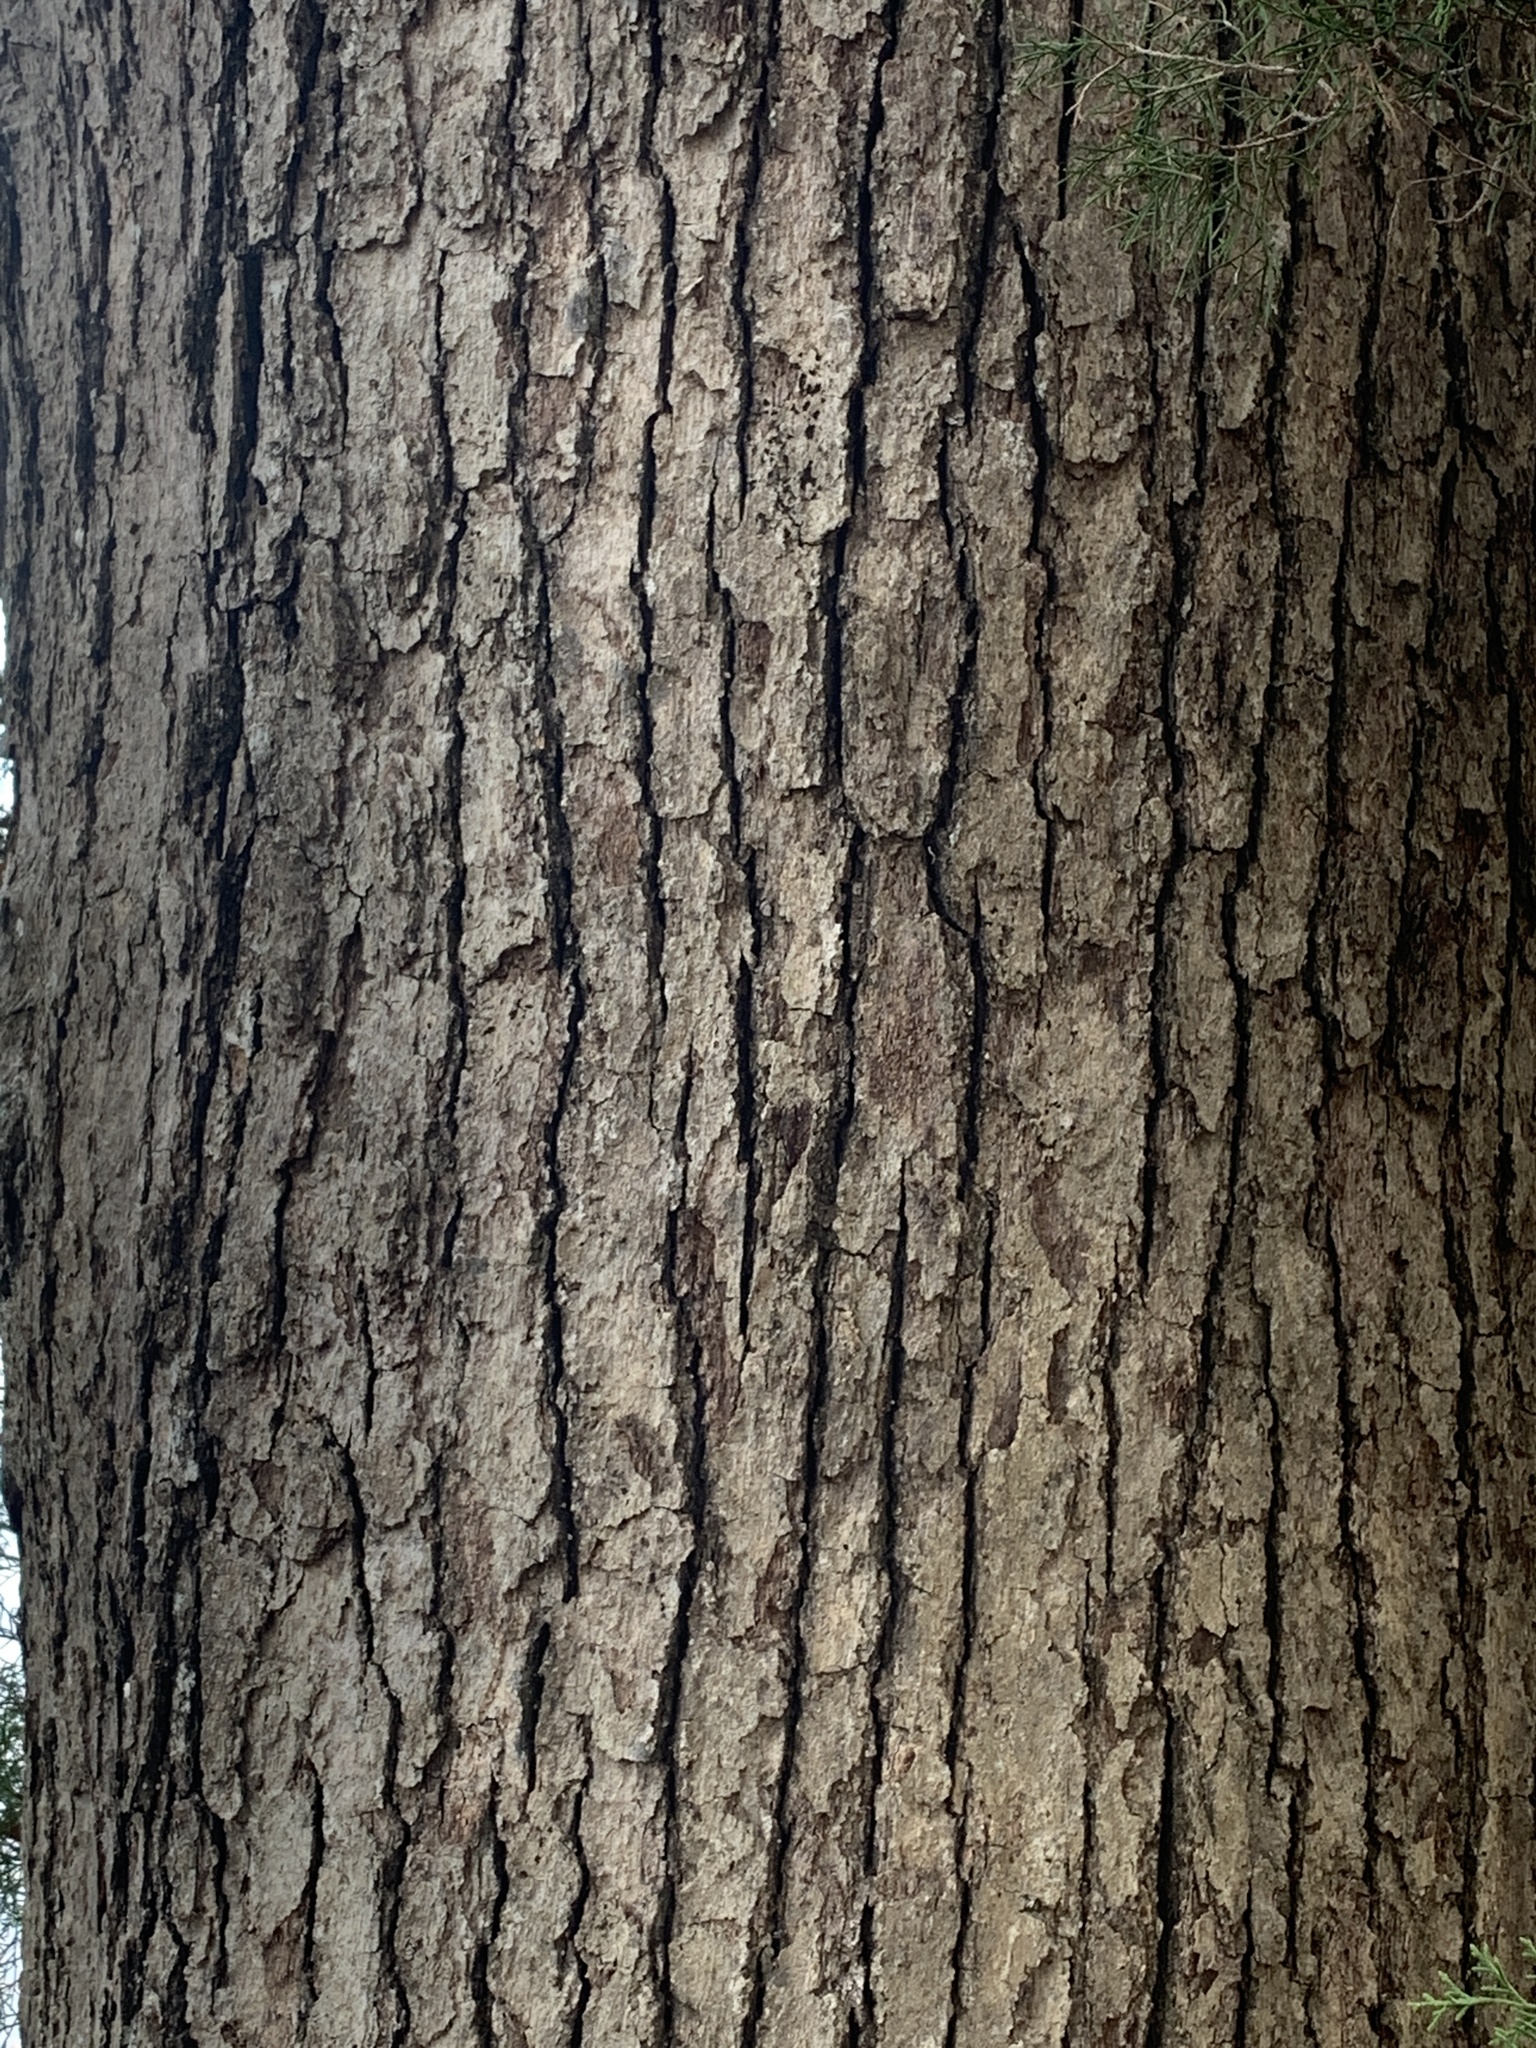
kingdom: Plantae
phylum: Tracheophyta
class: Magnoliopsida
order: Fagales
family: Fagaceae
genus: Quercus
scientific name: Quercus alba
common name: White oak
